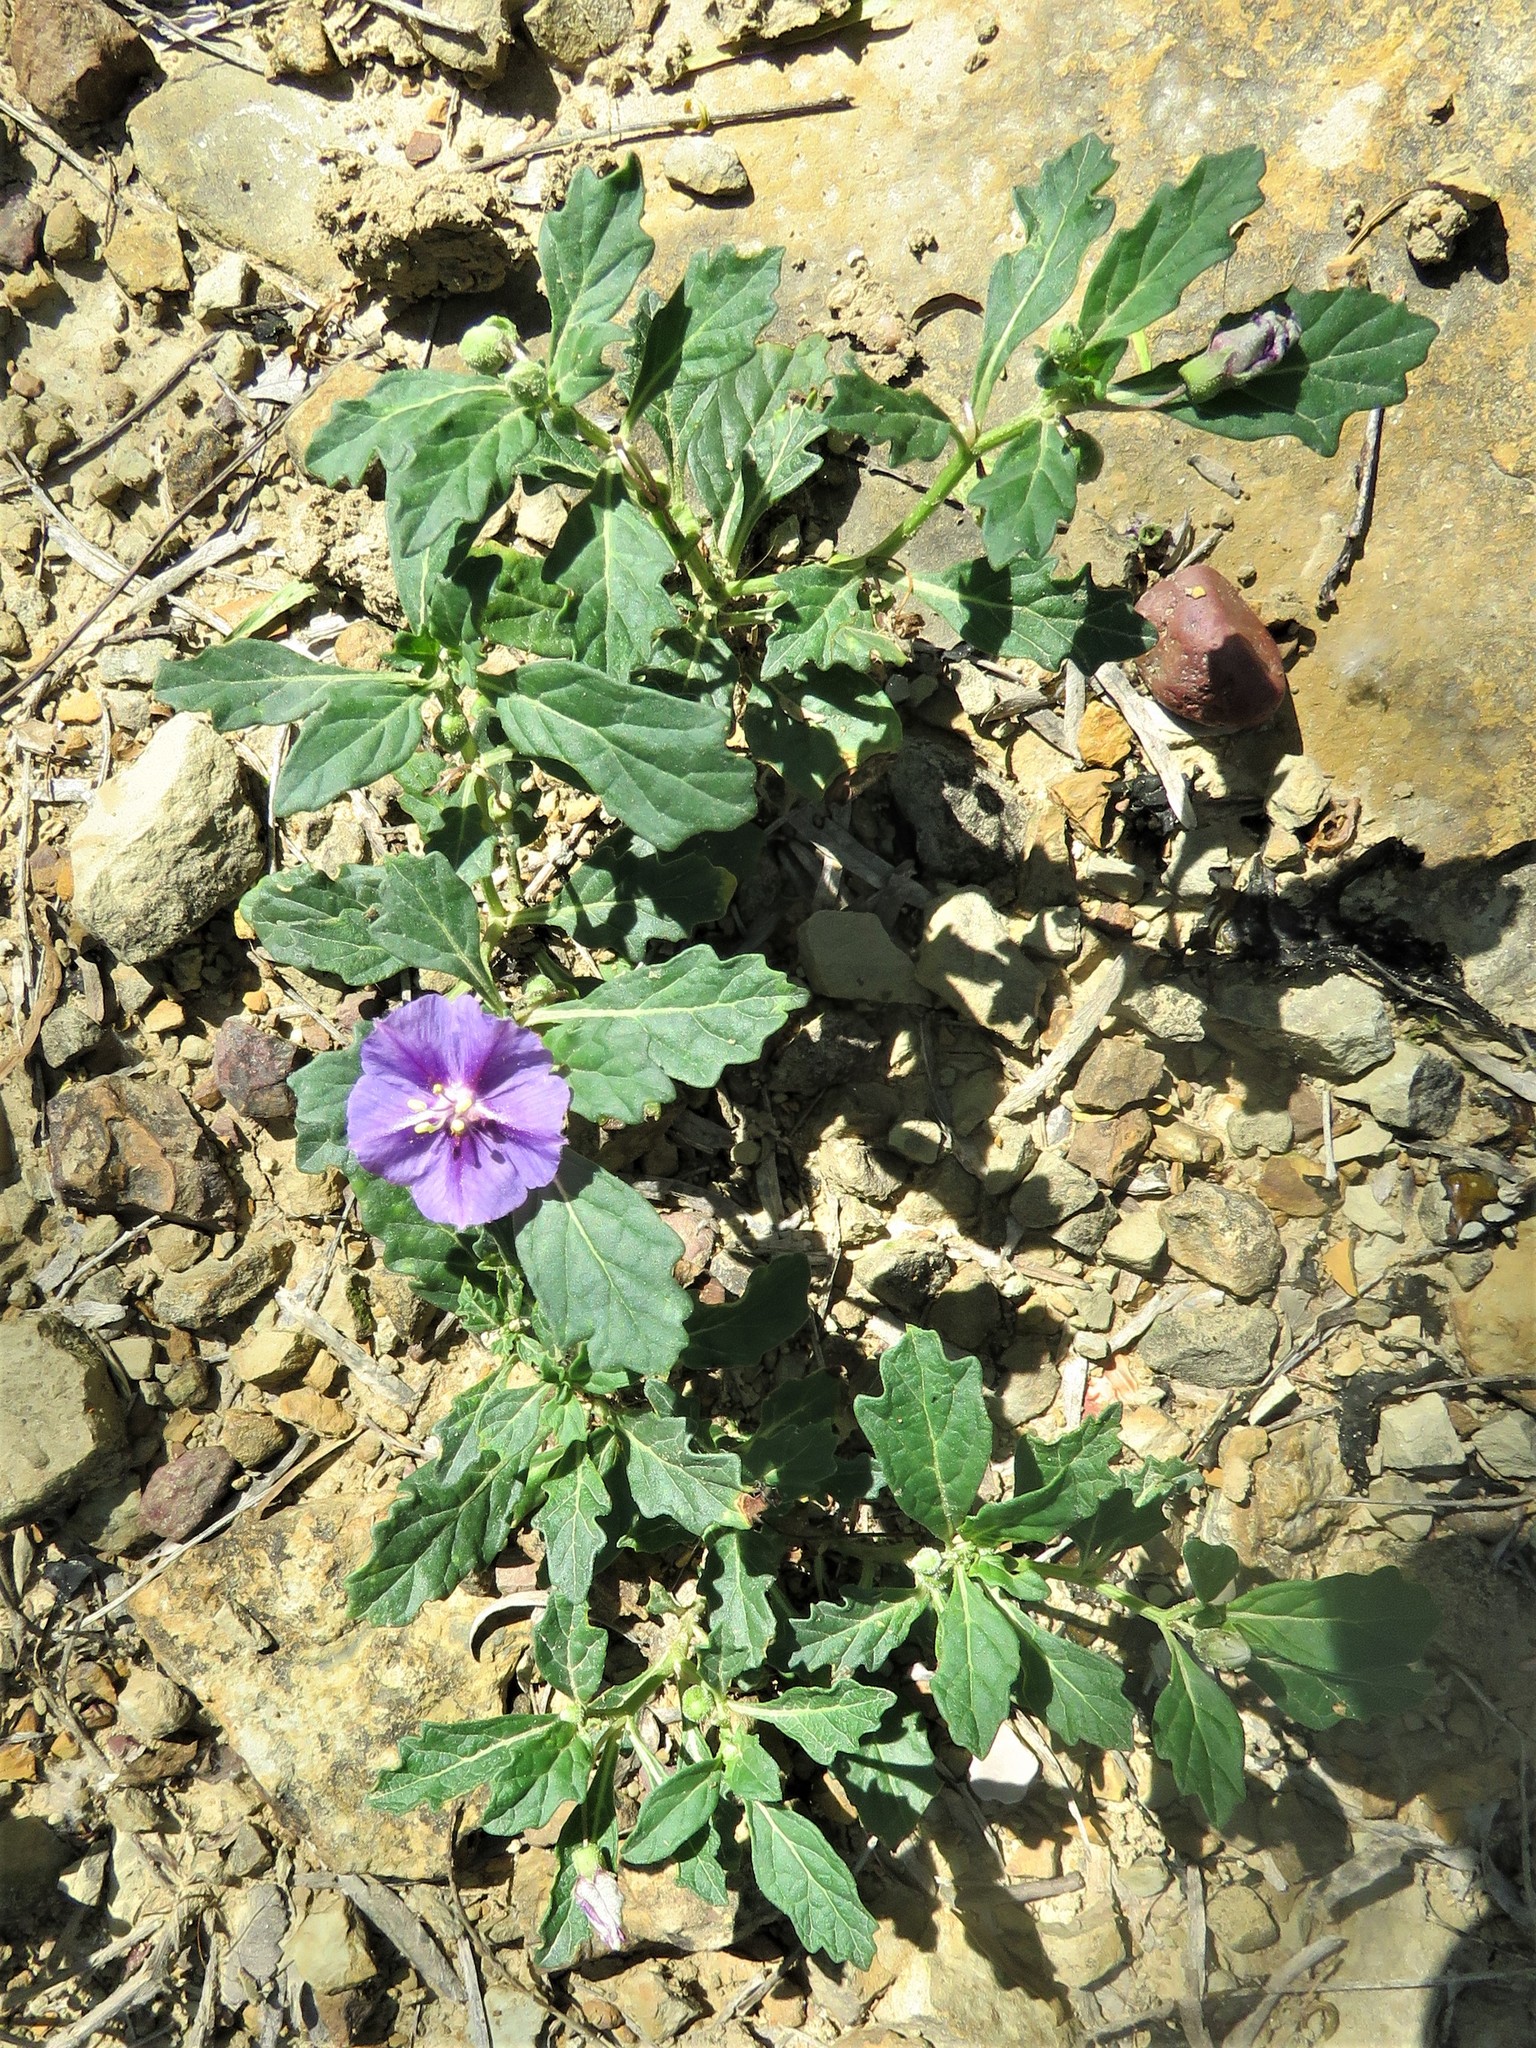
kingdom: Plantae
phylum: Tracheophyta
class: Magnoliopsida
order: Solanales
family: Solanaceae
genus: Quincula
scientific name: Quincula lobata
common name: Purple-ground-cherry
